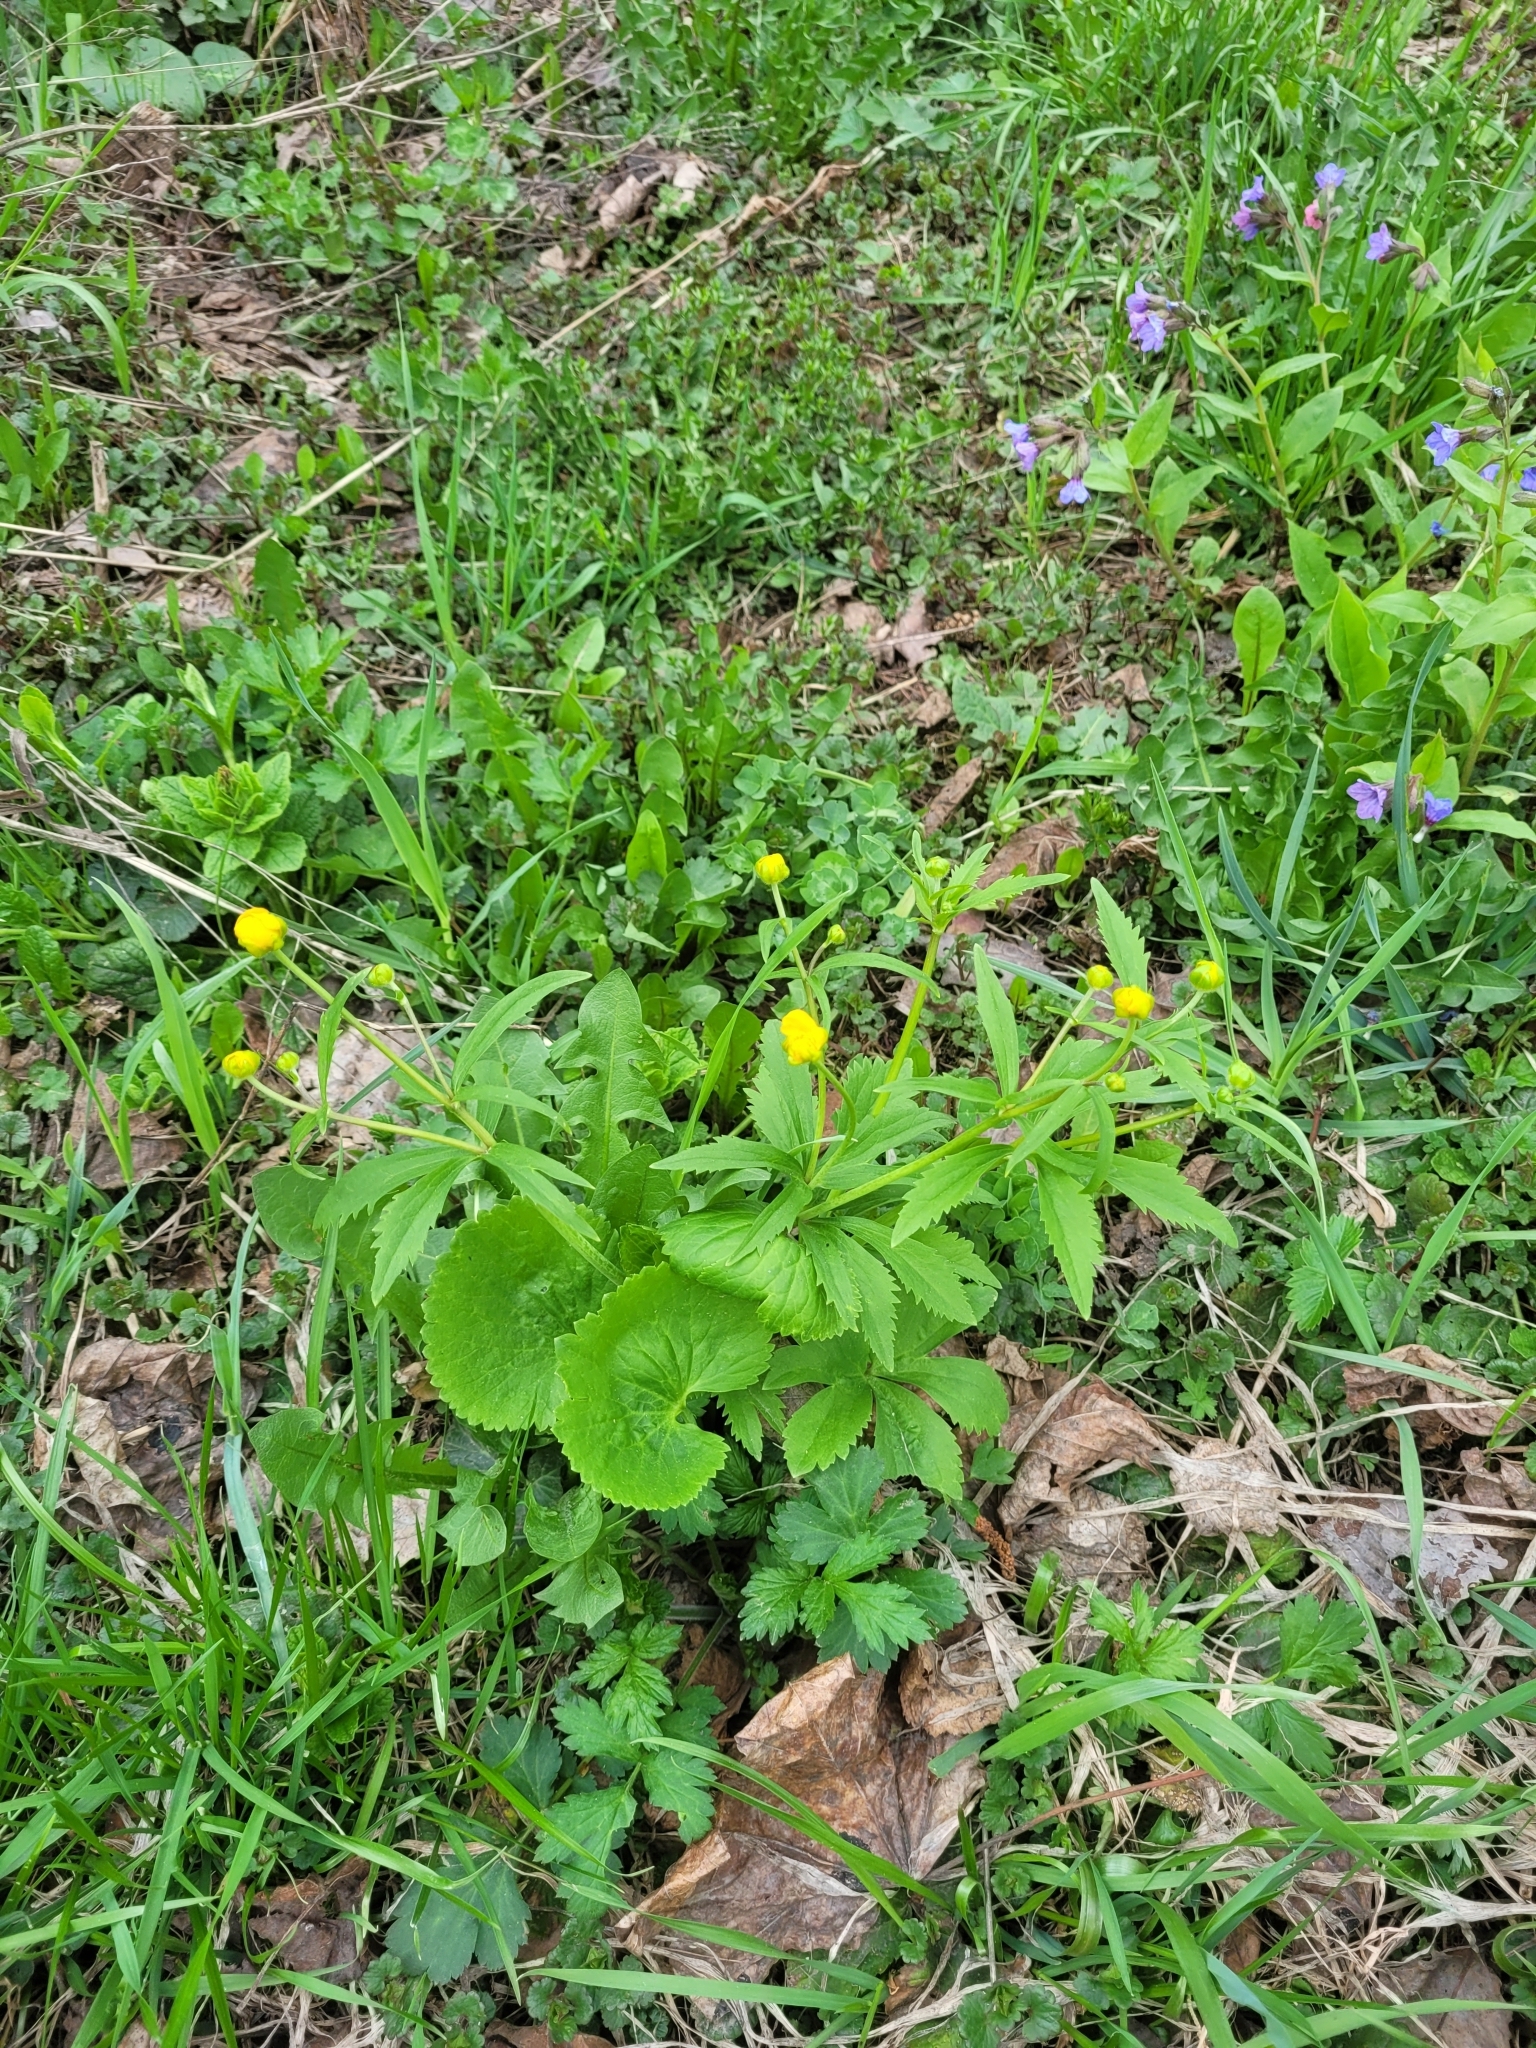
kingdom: Plantae
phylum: Tracheophyta
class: Magnoliopsida
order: Ranunculales
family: Ranunculaceae
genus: Ranunculus
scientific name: Ranunculus cassubicus
